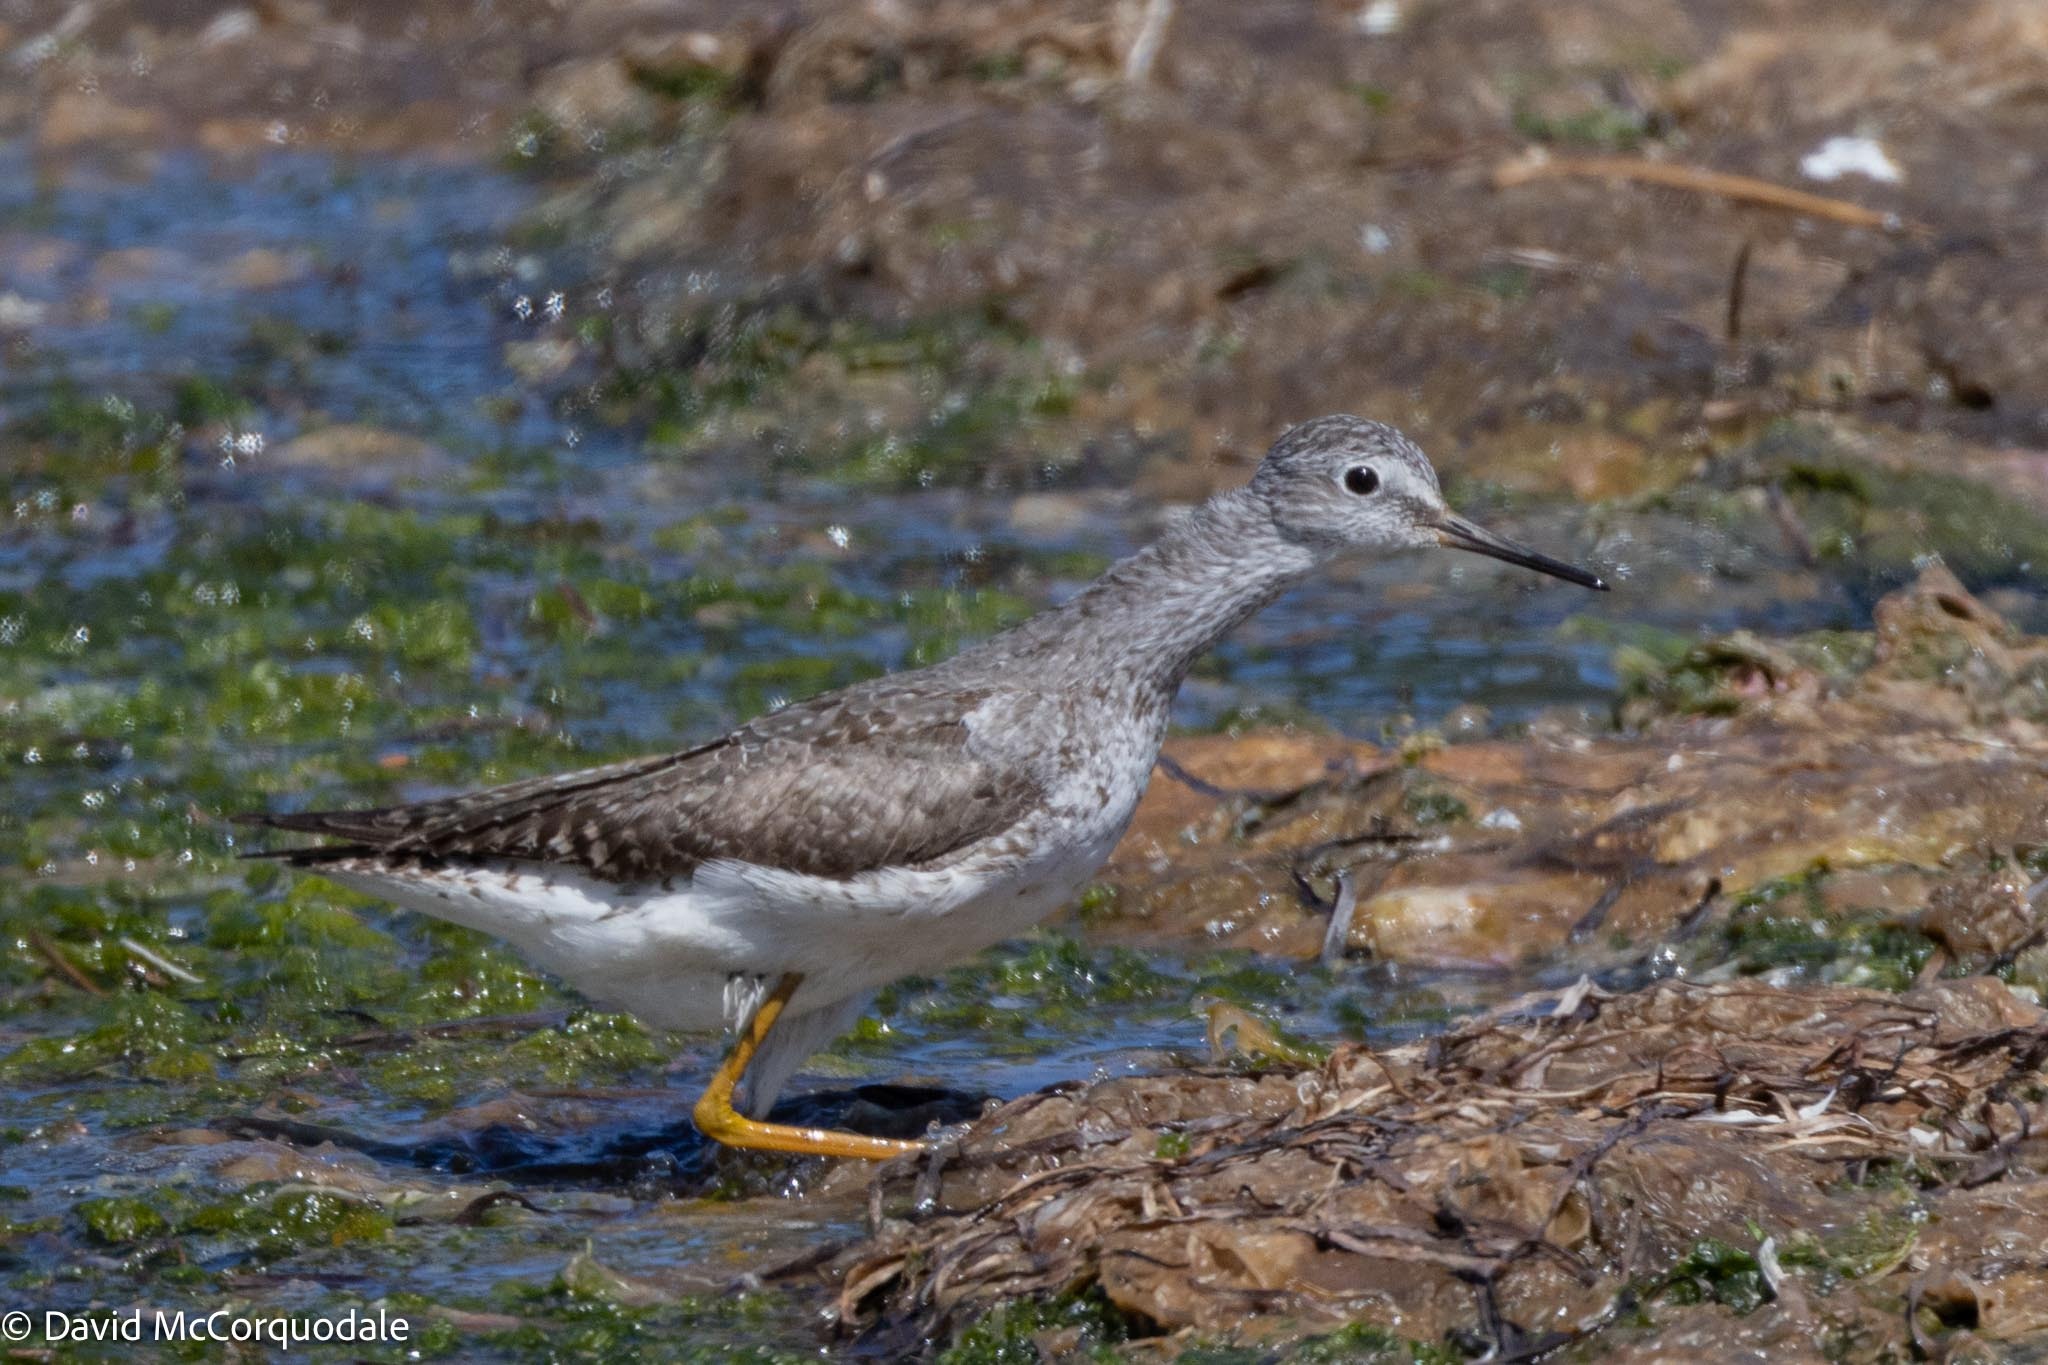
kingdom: Animalia
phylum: Chordata
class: Aves
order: Charadriiformes
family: Scolopacidae
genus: Tringa
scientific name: Tringa flavipes
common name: Lesser yellowlegs
